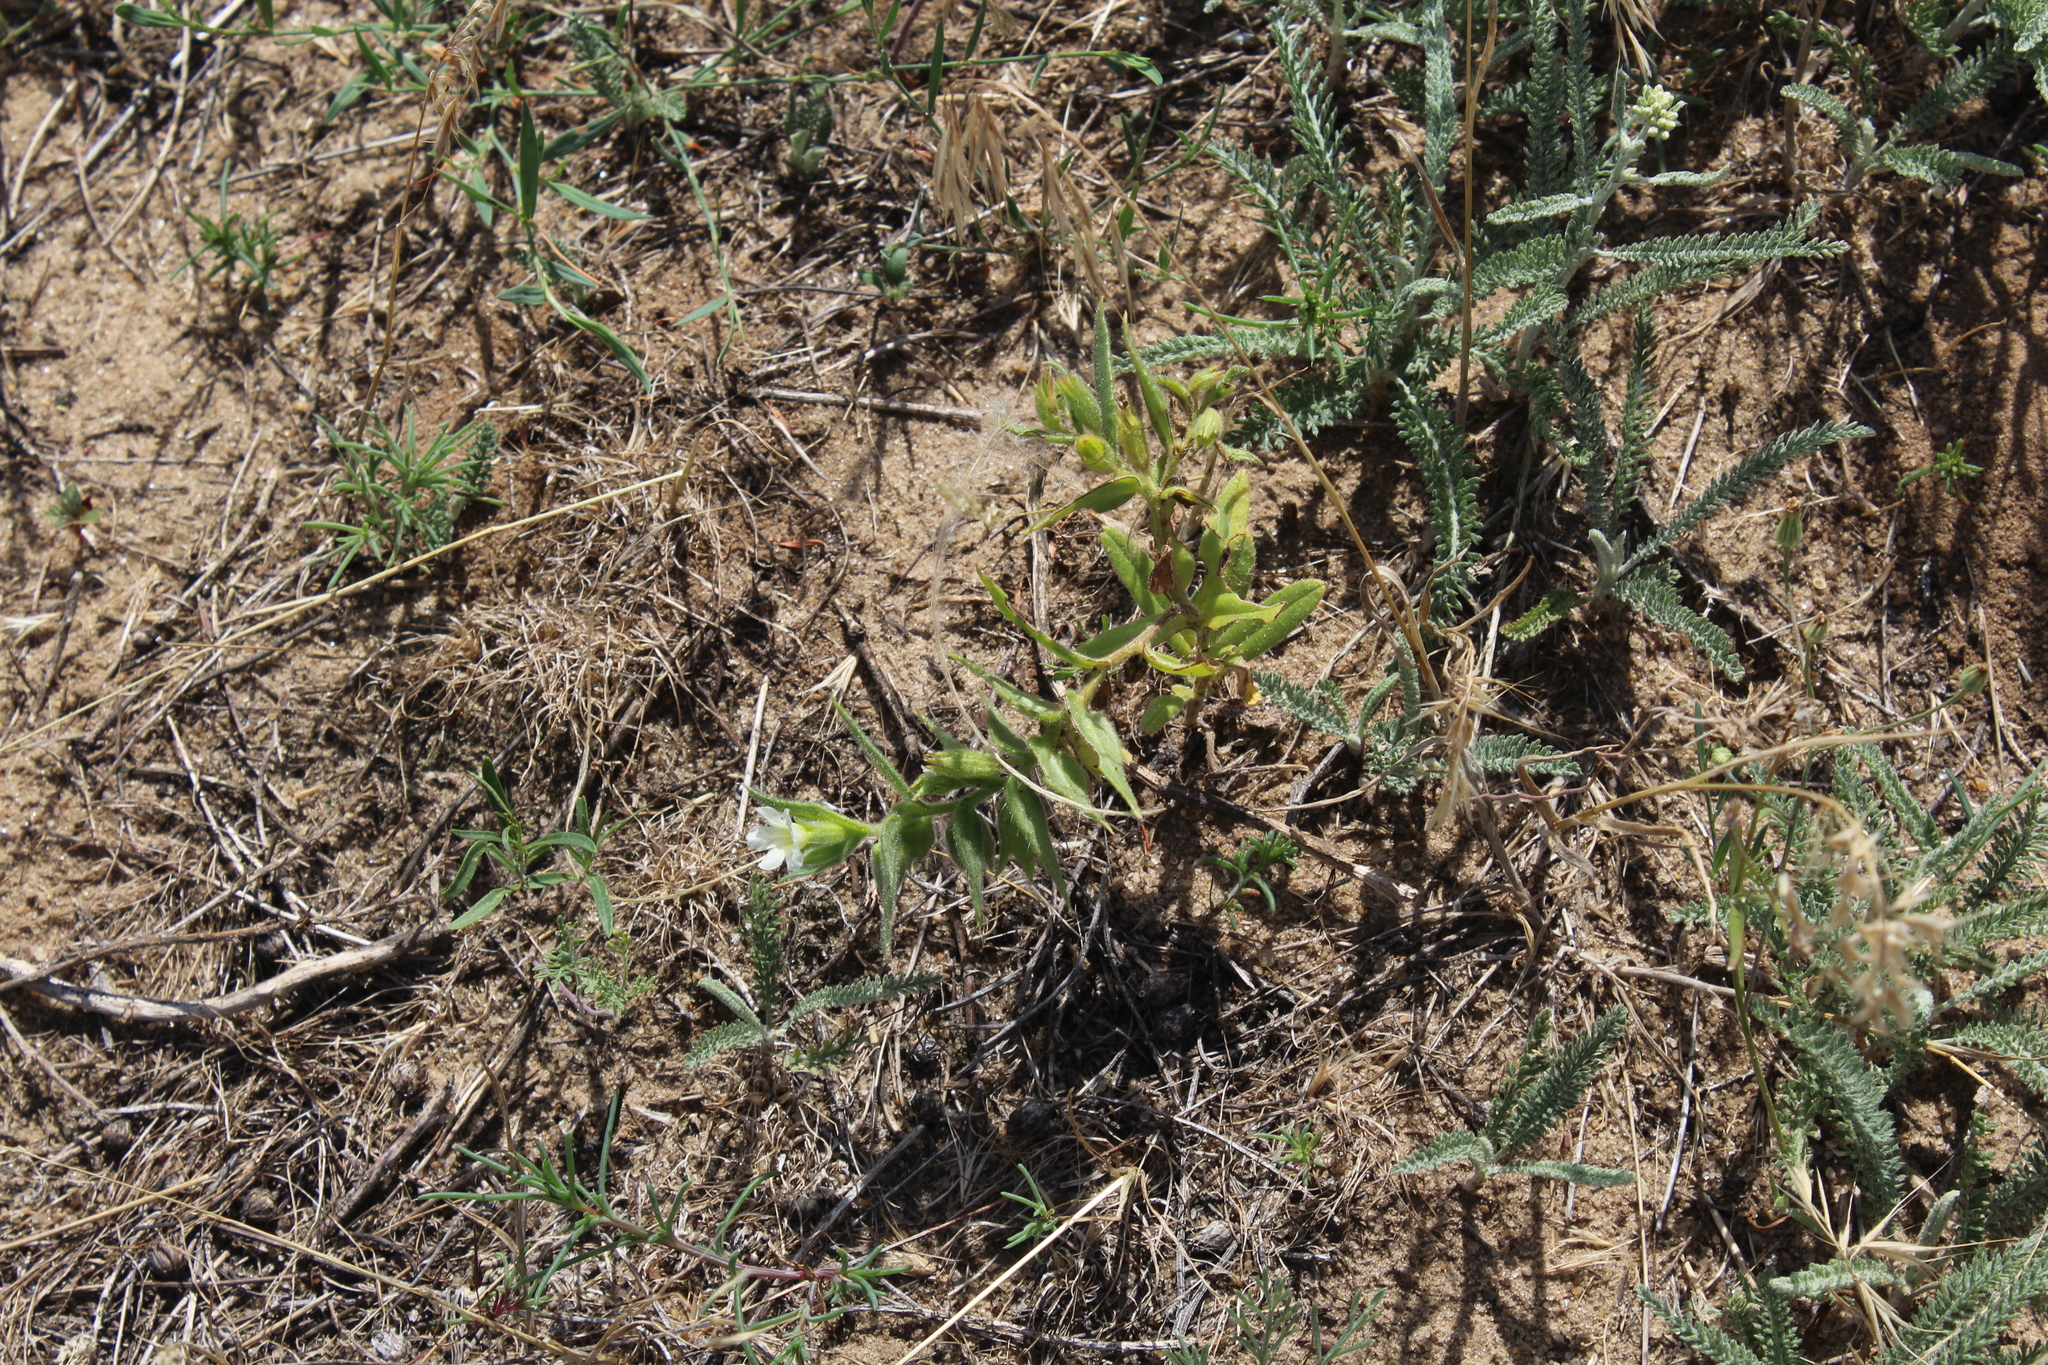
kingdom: Plantae
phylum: Tracheophyta
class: Magnoliopsida
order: Boraginales
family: Boraginaceae
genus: Nonea
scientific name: Nonea lutea
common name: Yellow nonea
